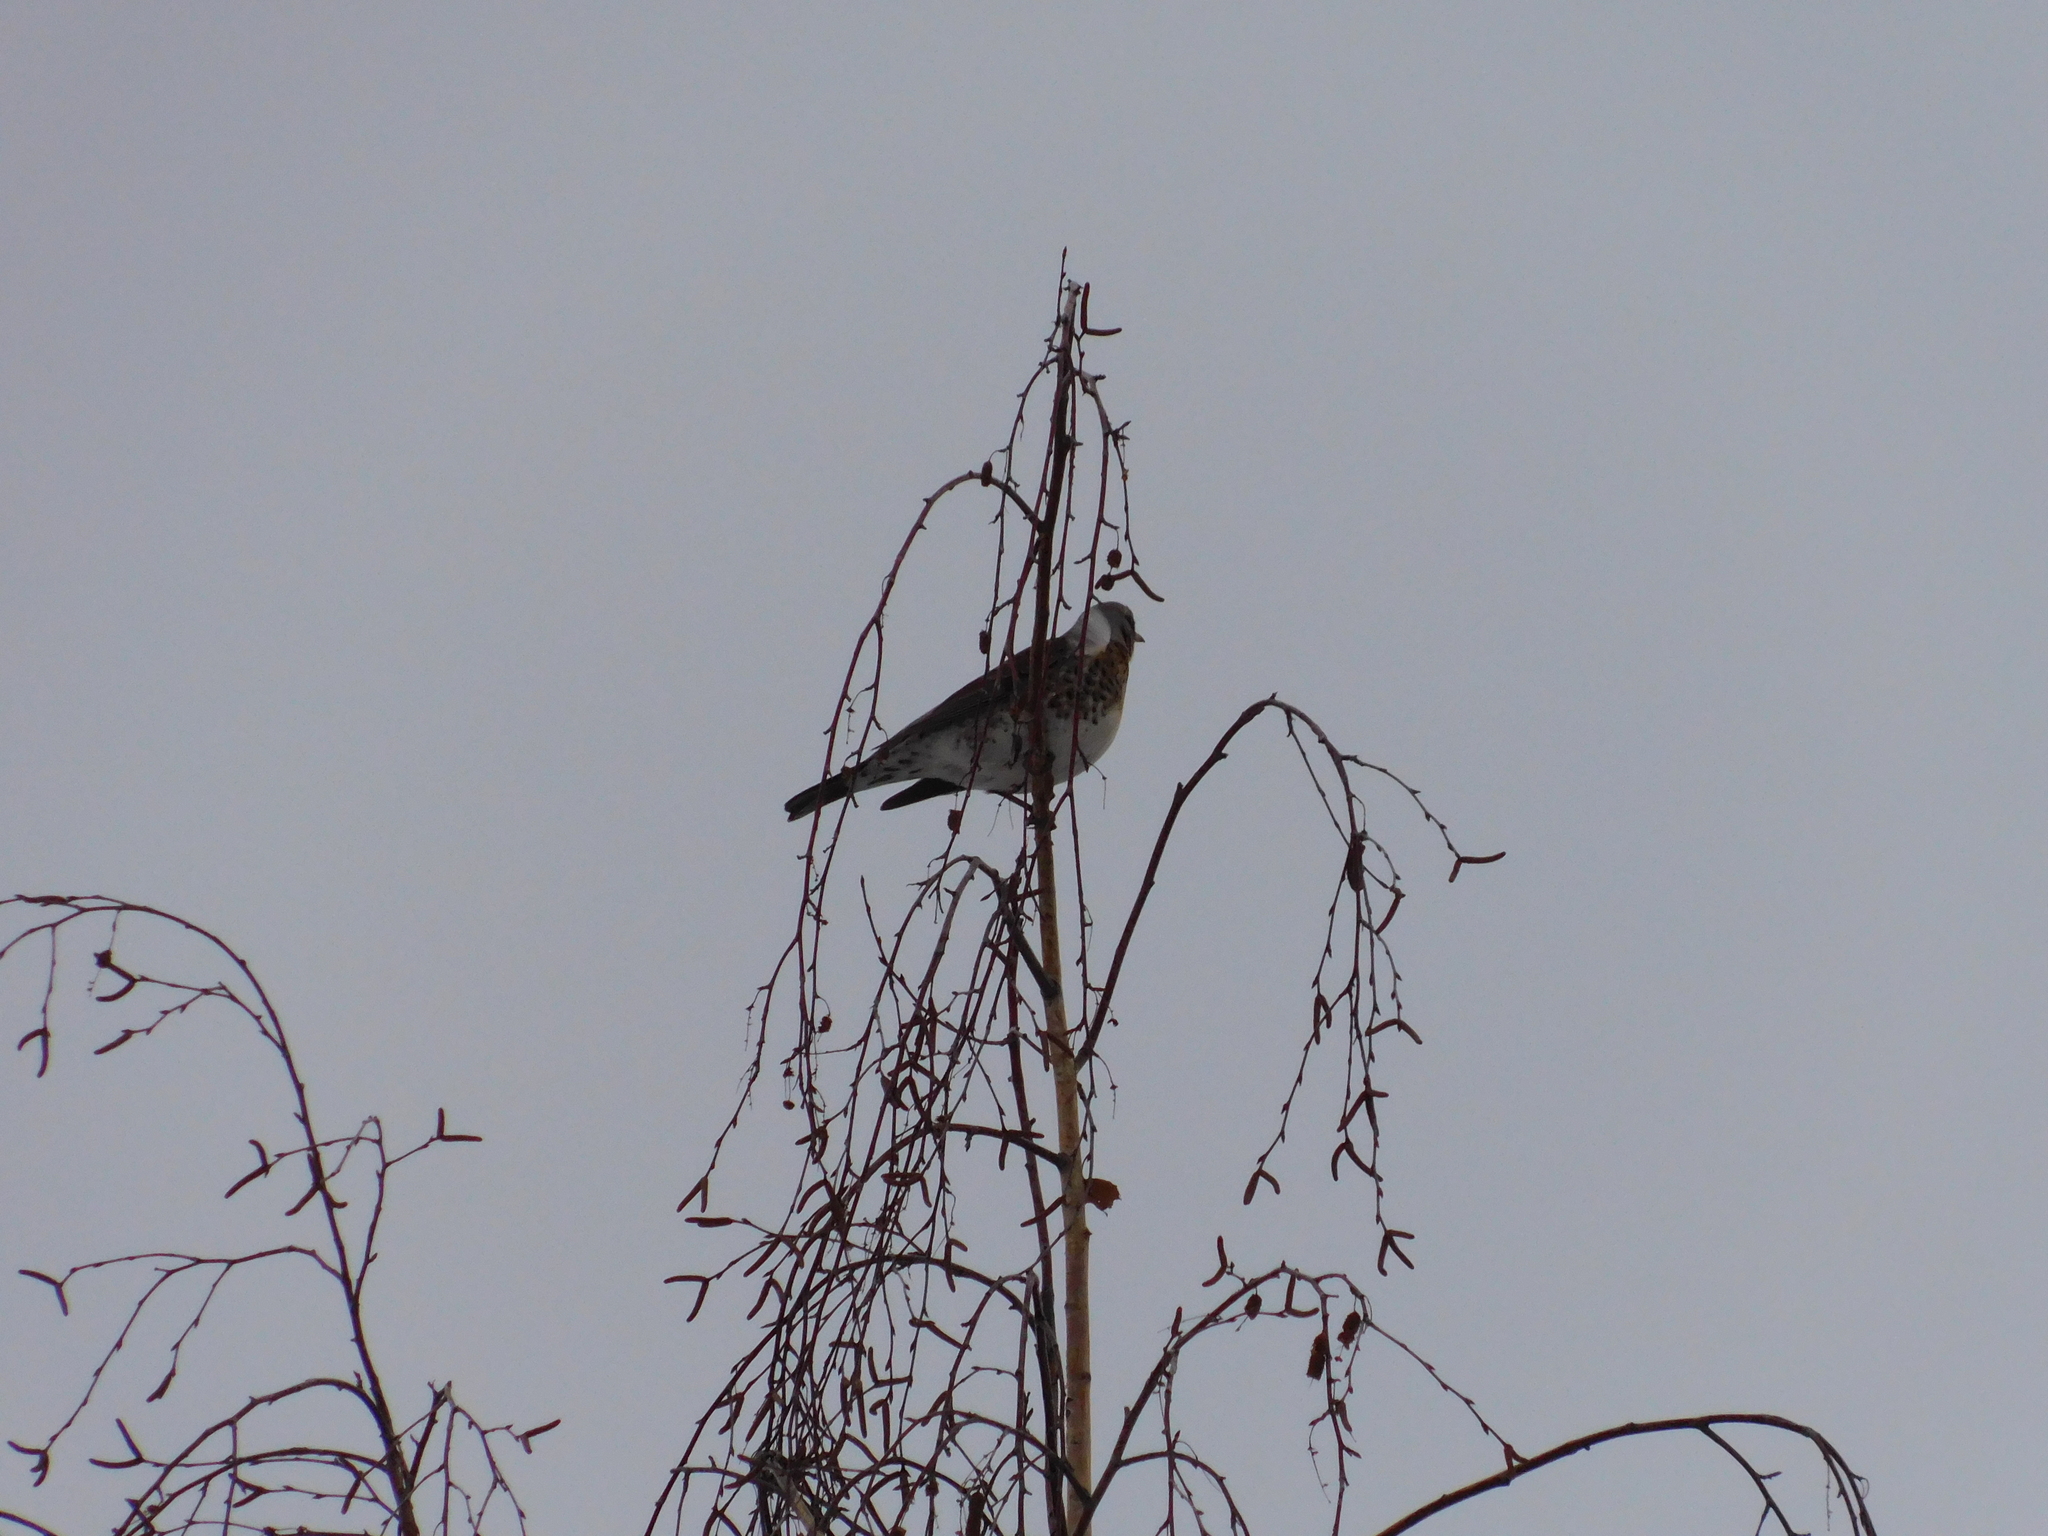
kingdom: Animalia
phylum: Chordata
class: Aves
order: Passeriformes
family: Turdidae
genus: Turdus
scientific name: Turdus pilaris
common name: Fieldfare
